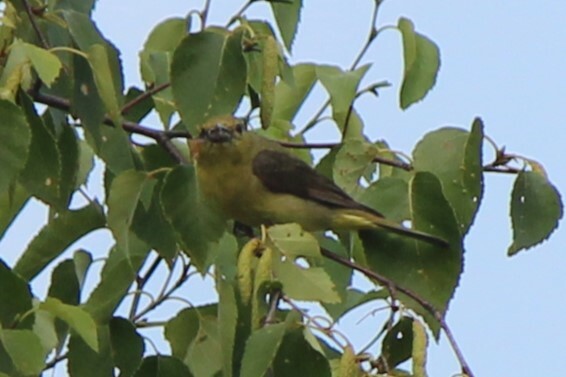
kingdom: Animalia
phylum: Chordata
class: Aves
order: Passeriformes
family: Cardinalidae
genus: Piranga
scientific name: Piranga olivacea
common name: Scarlet tanager
